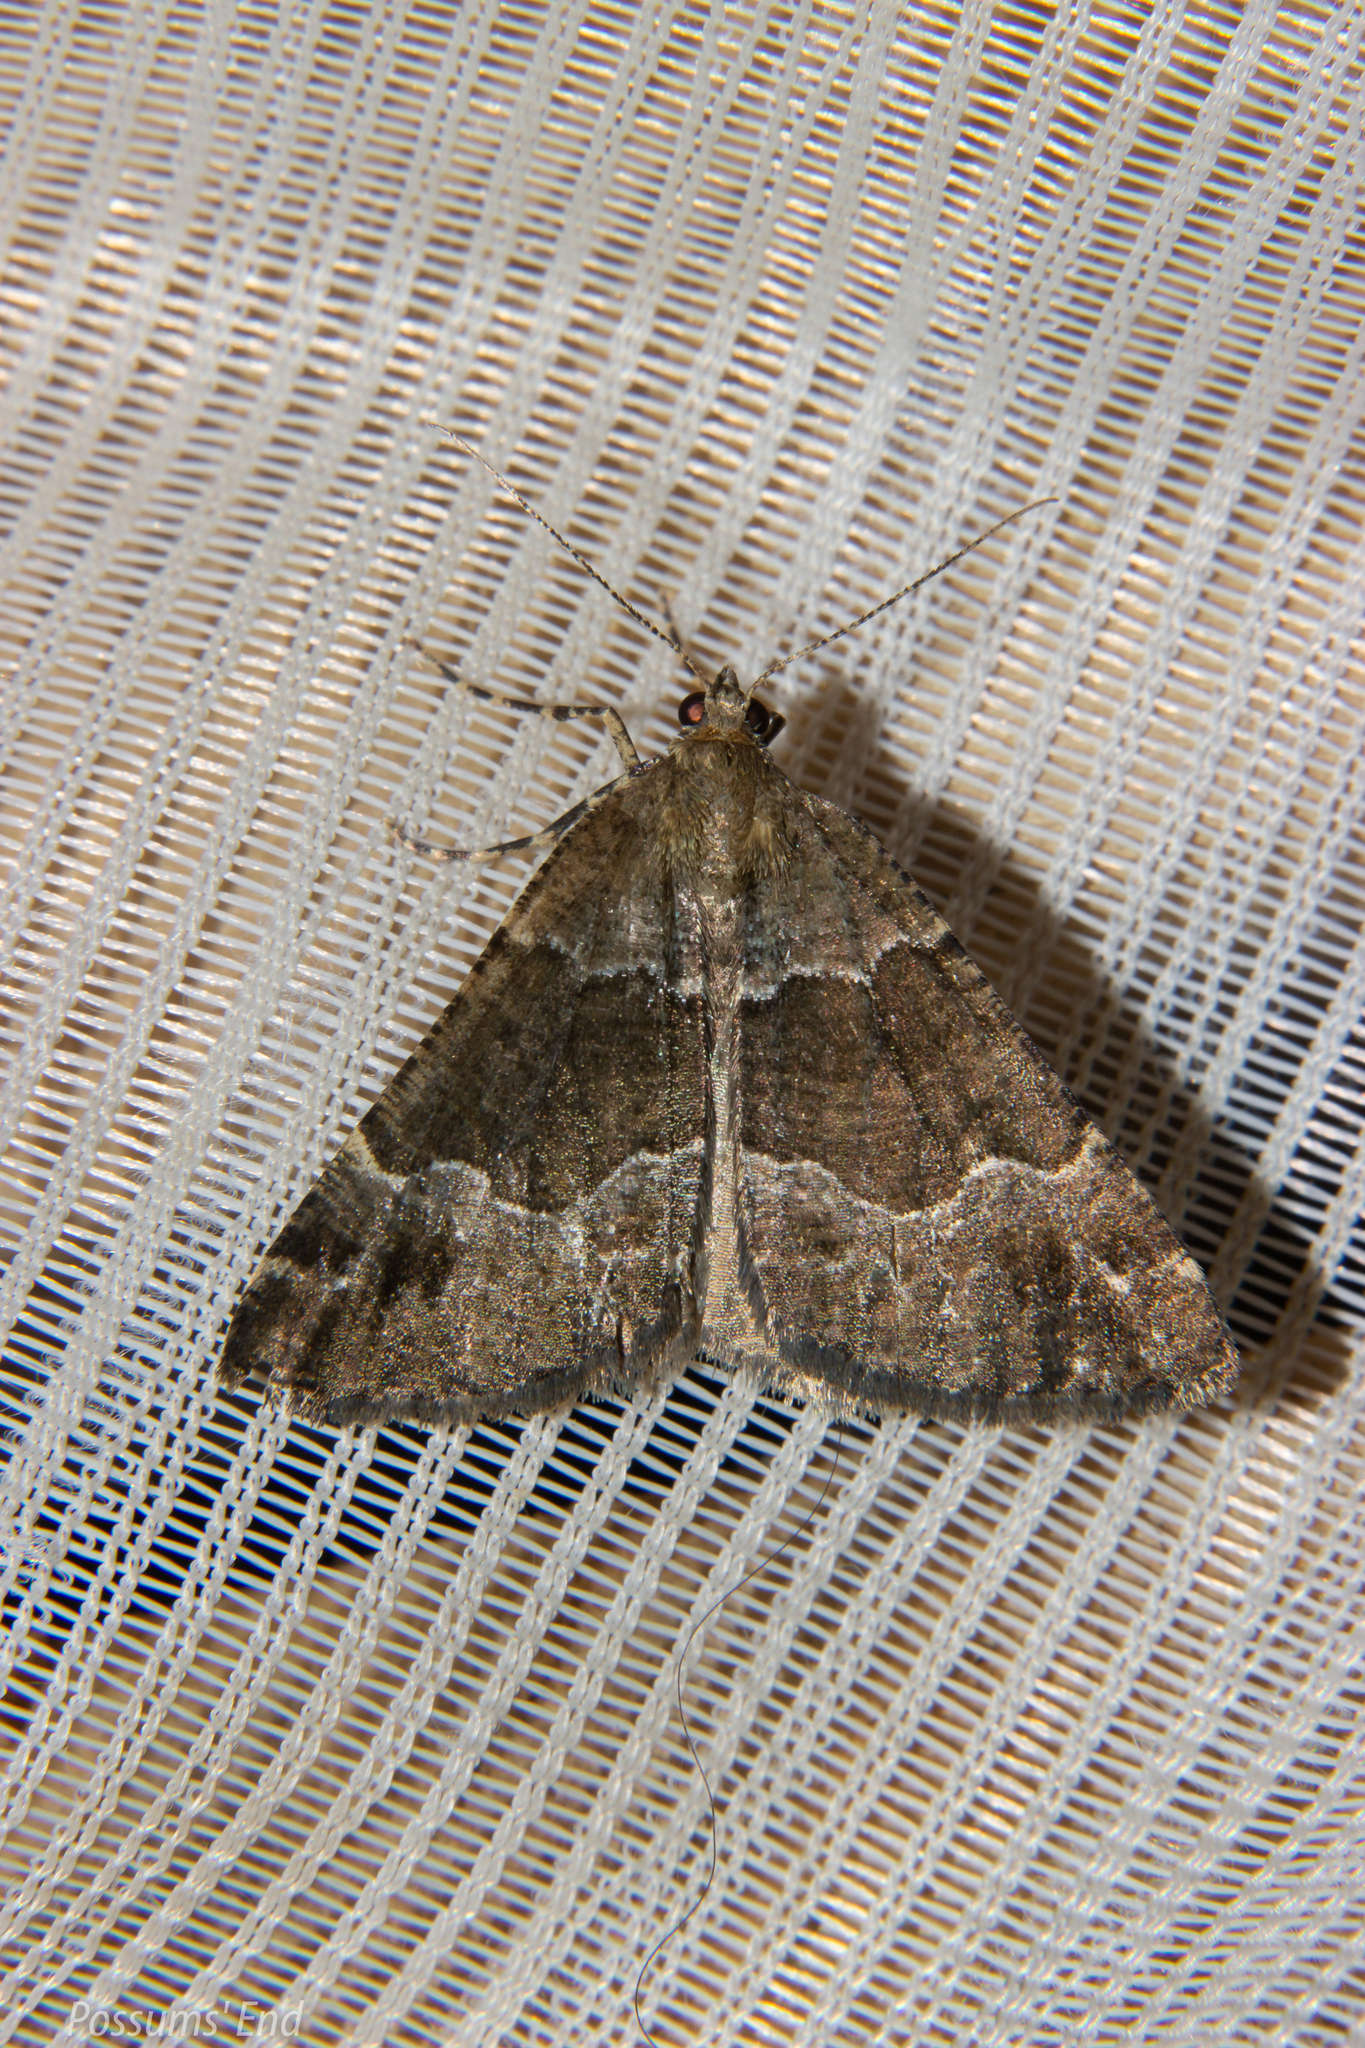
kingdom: Animalia
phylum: Arthropoda
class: Insecta
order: Lepidoptera
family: Geometridae
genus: Pseudocoremia
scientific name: Pseudocoremia
